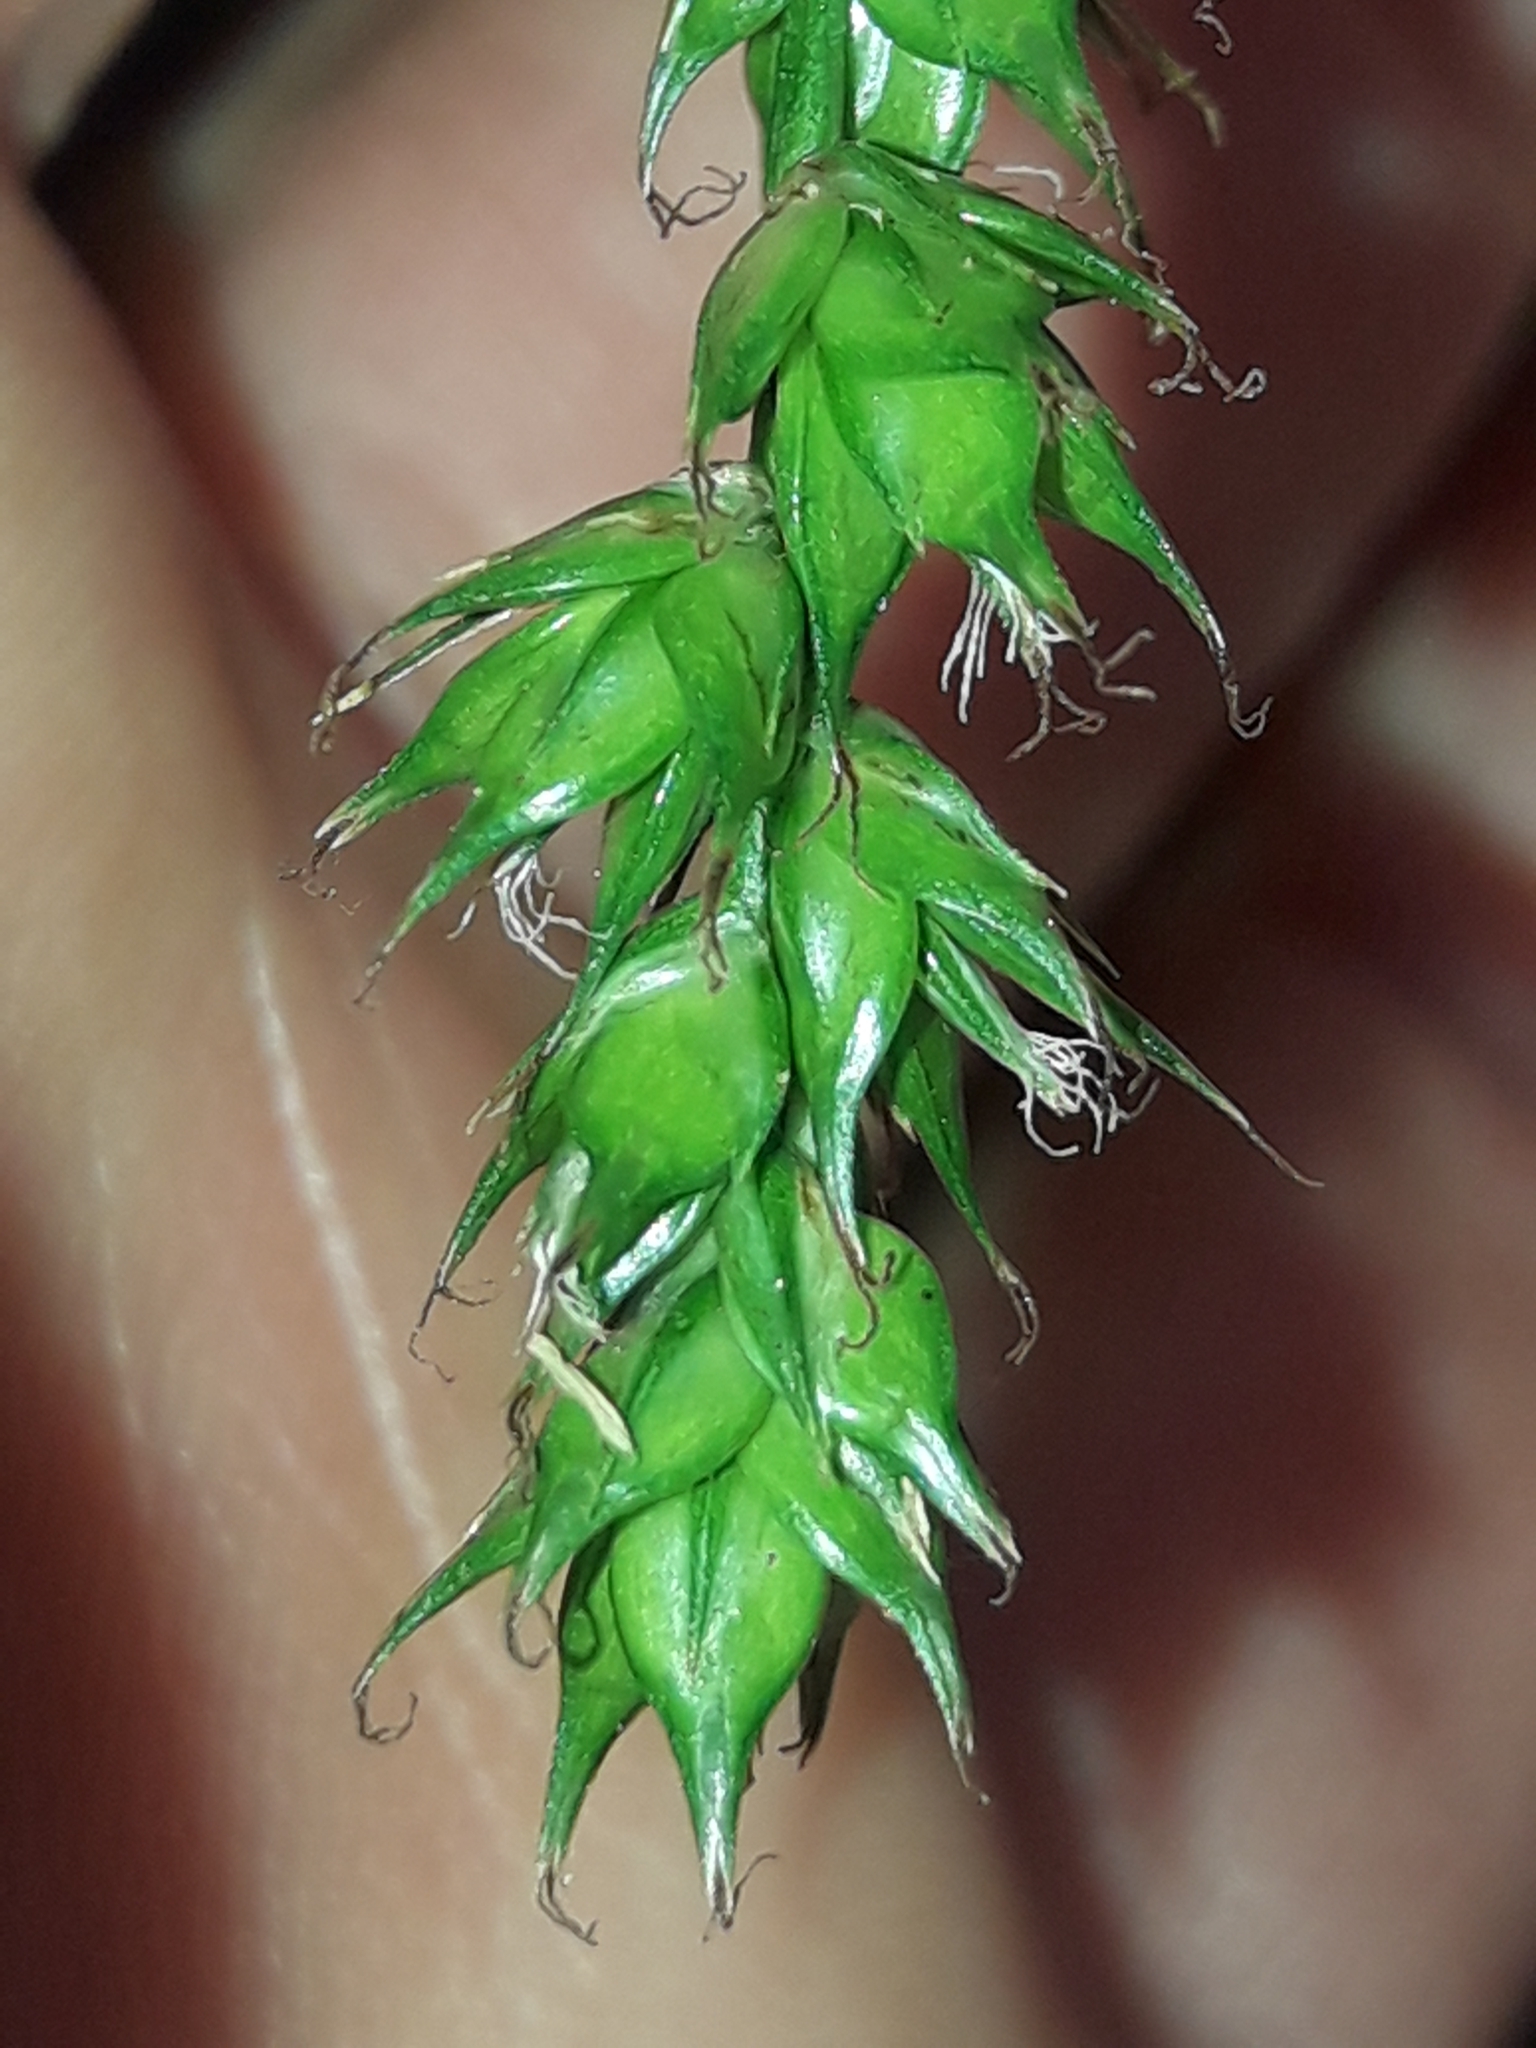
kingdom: Plantae
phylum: Tracheophyta
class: Liliopsida
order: Poales
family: Cyperaceae
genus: Carex
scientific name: Carex divulsa
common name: Grassland sedge
